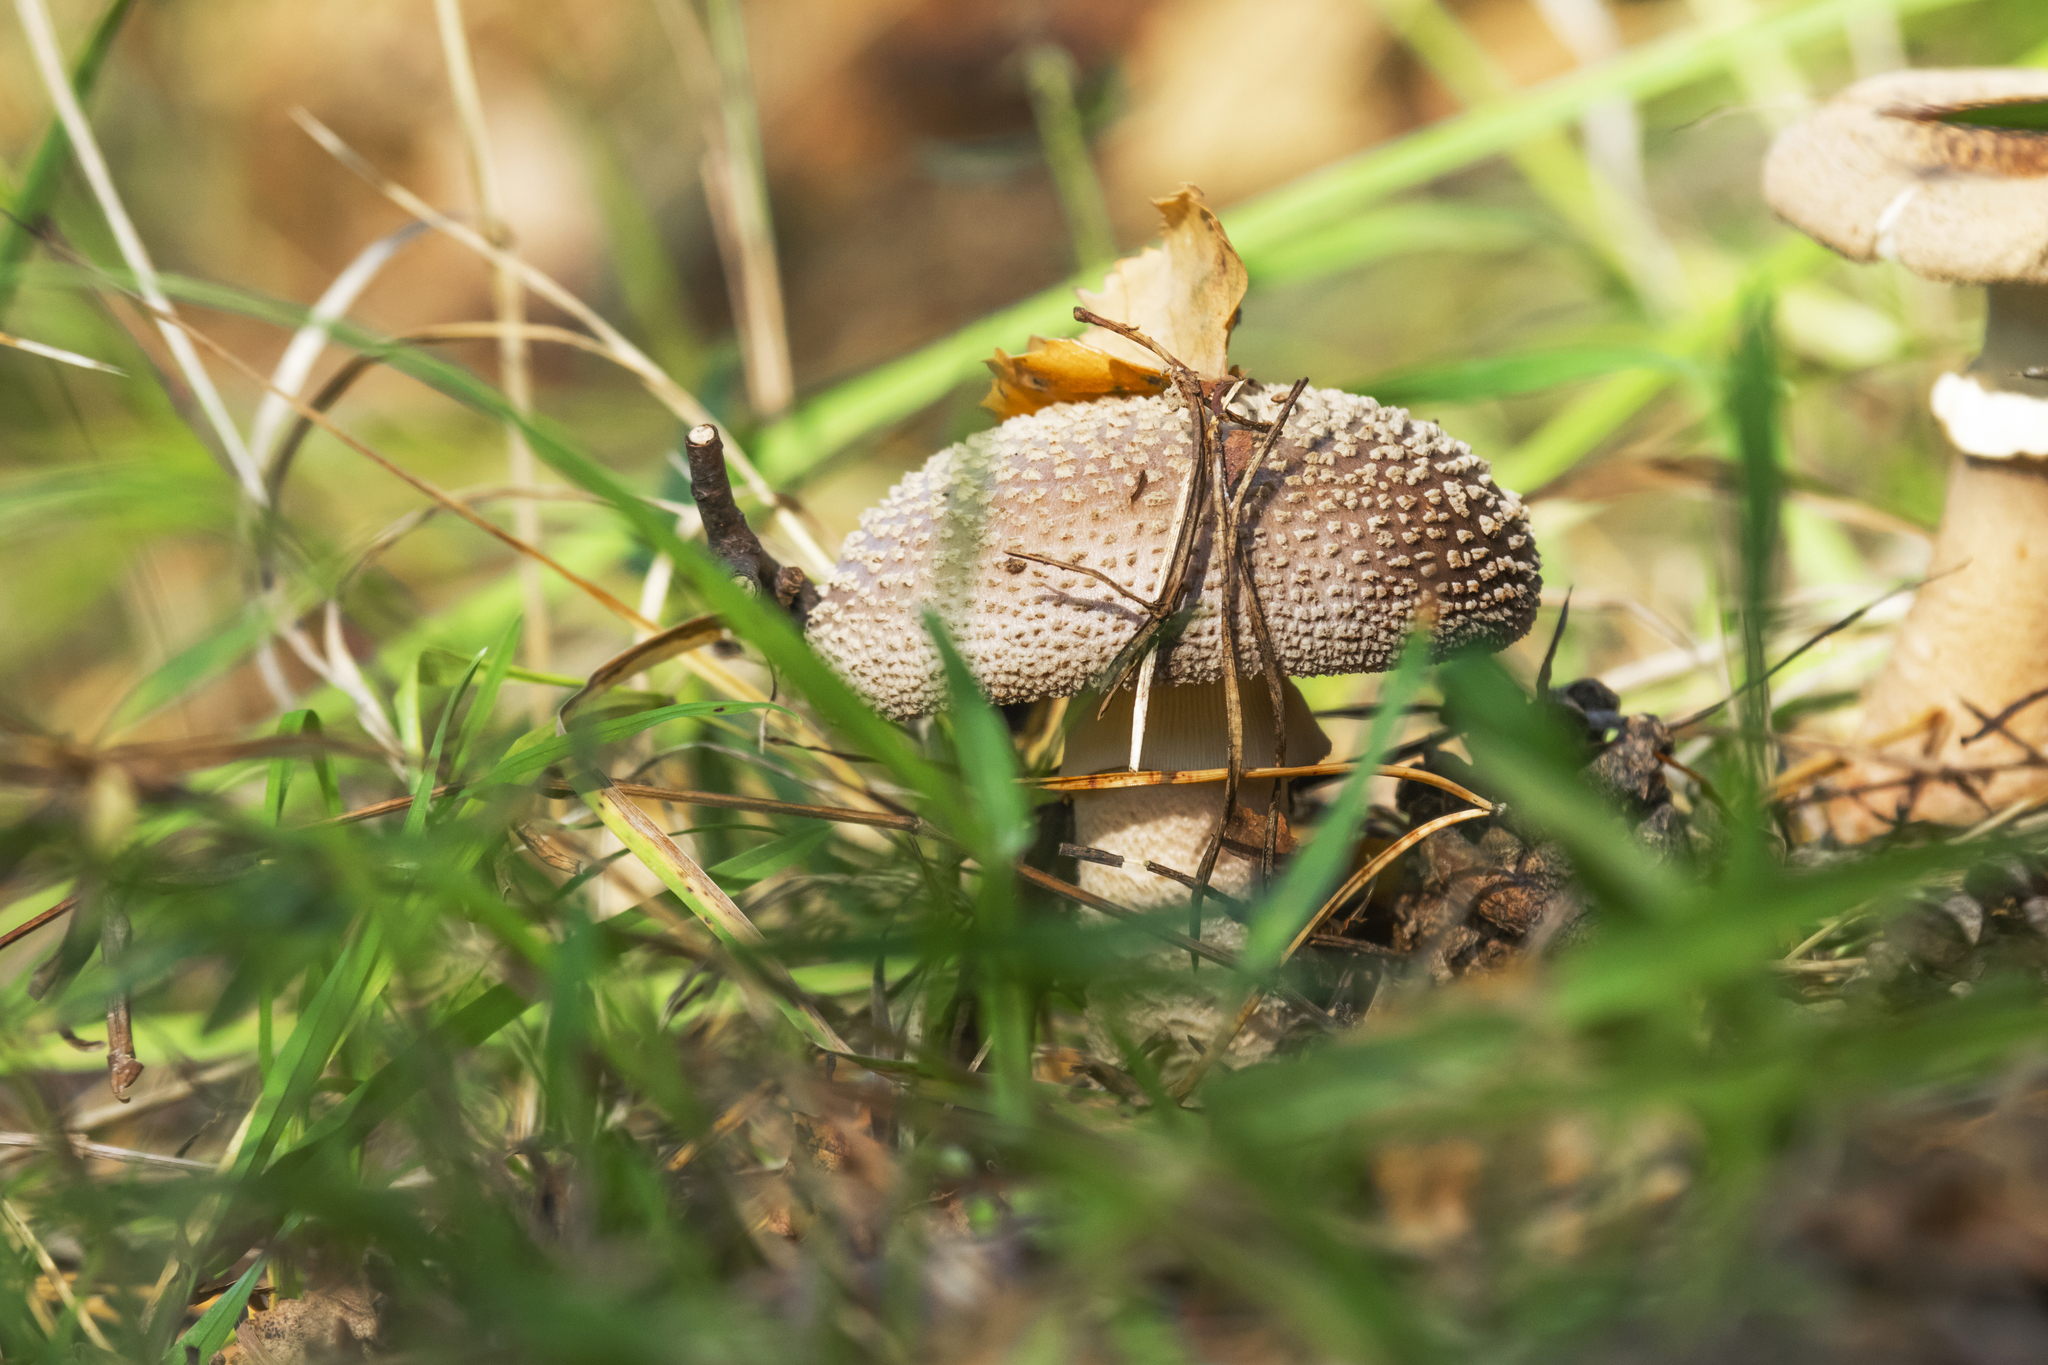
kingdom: Fungi
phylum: Basidiomycota
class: Agaricomycetes
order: Agaricales
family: Amanitaceae
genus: Amanita
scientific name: Amanita rubescens
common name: Blusher
